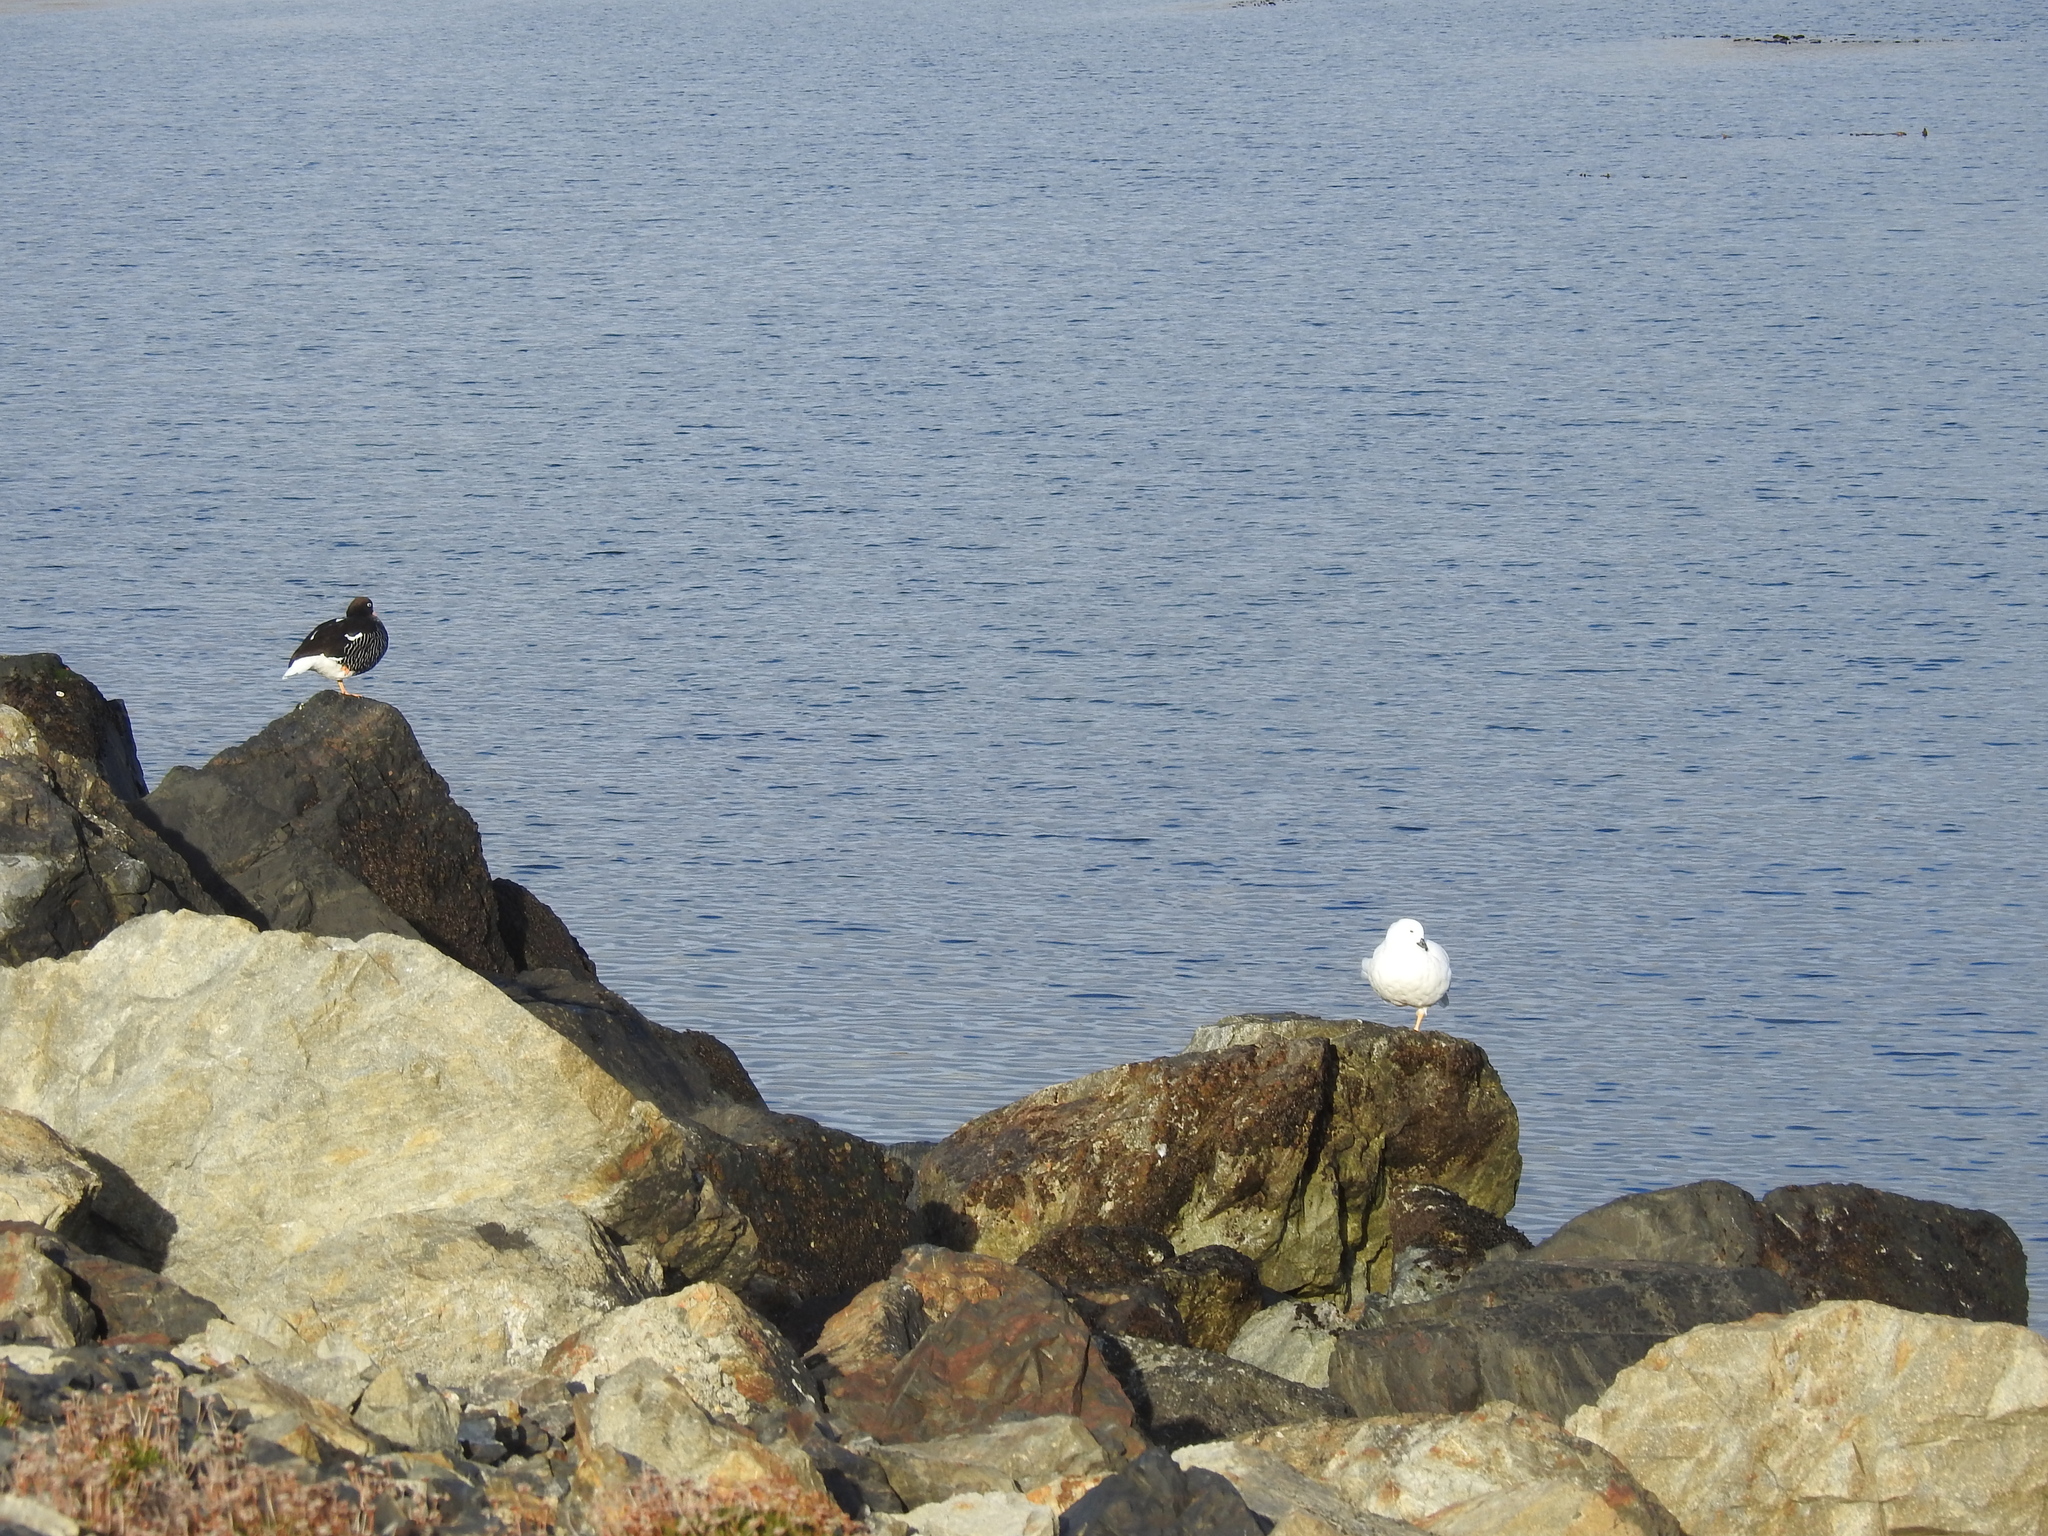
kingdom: Animalia
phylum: Chordata
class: Aves
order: Anseriformes
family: Anatidae
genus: Chloephaga
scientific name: Chloephaga hybrida
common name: Kelp goose
